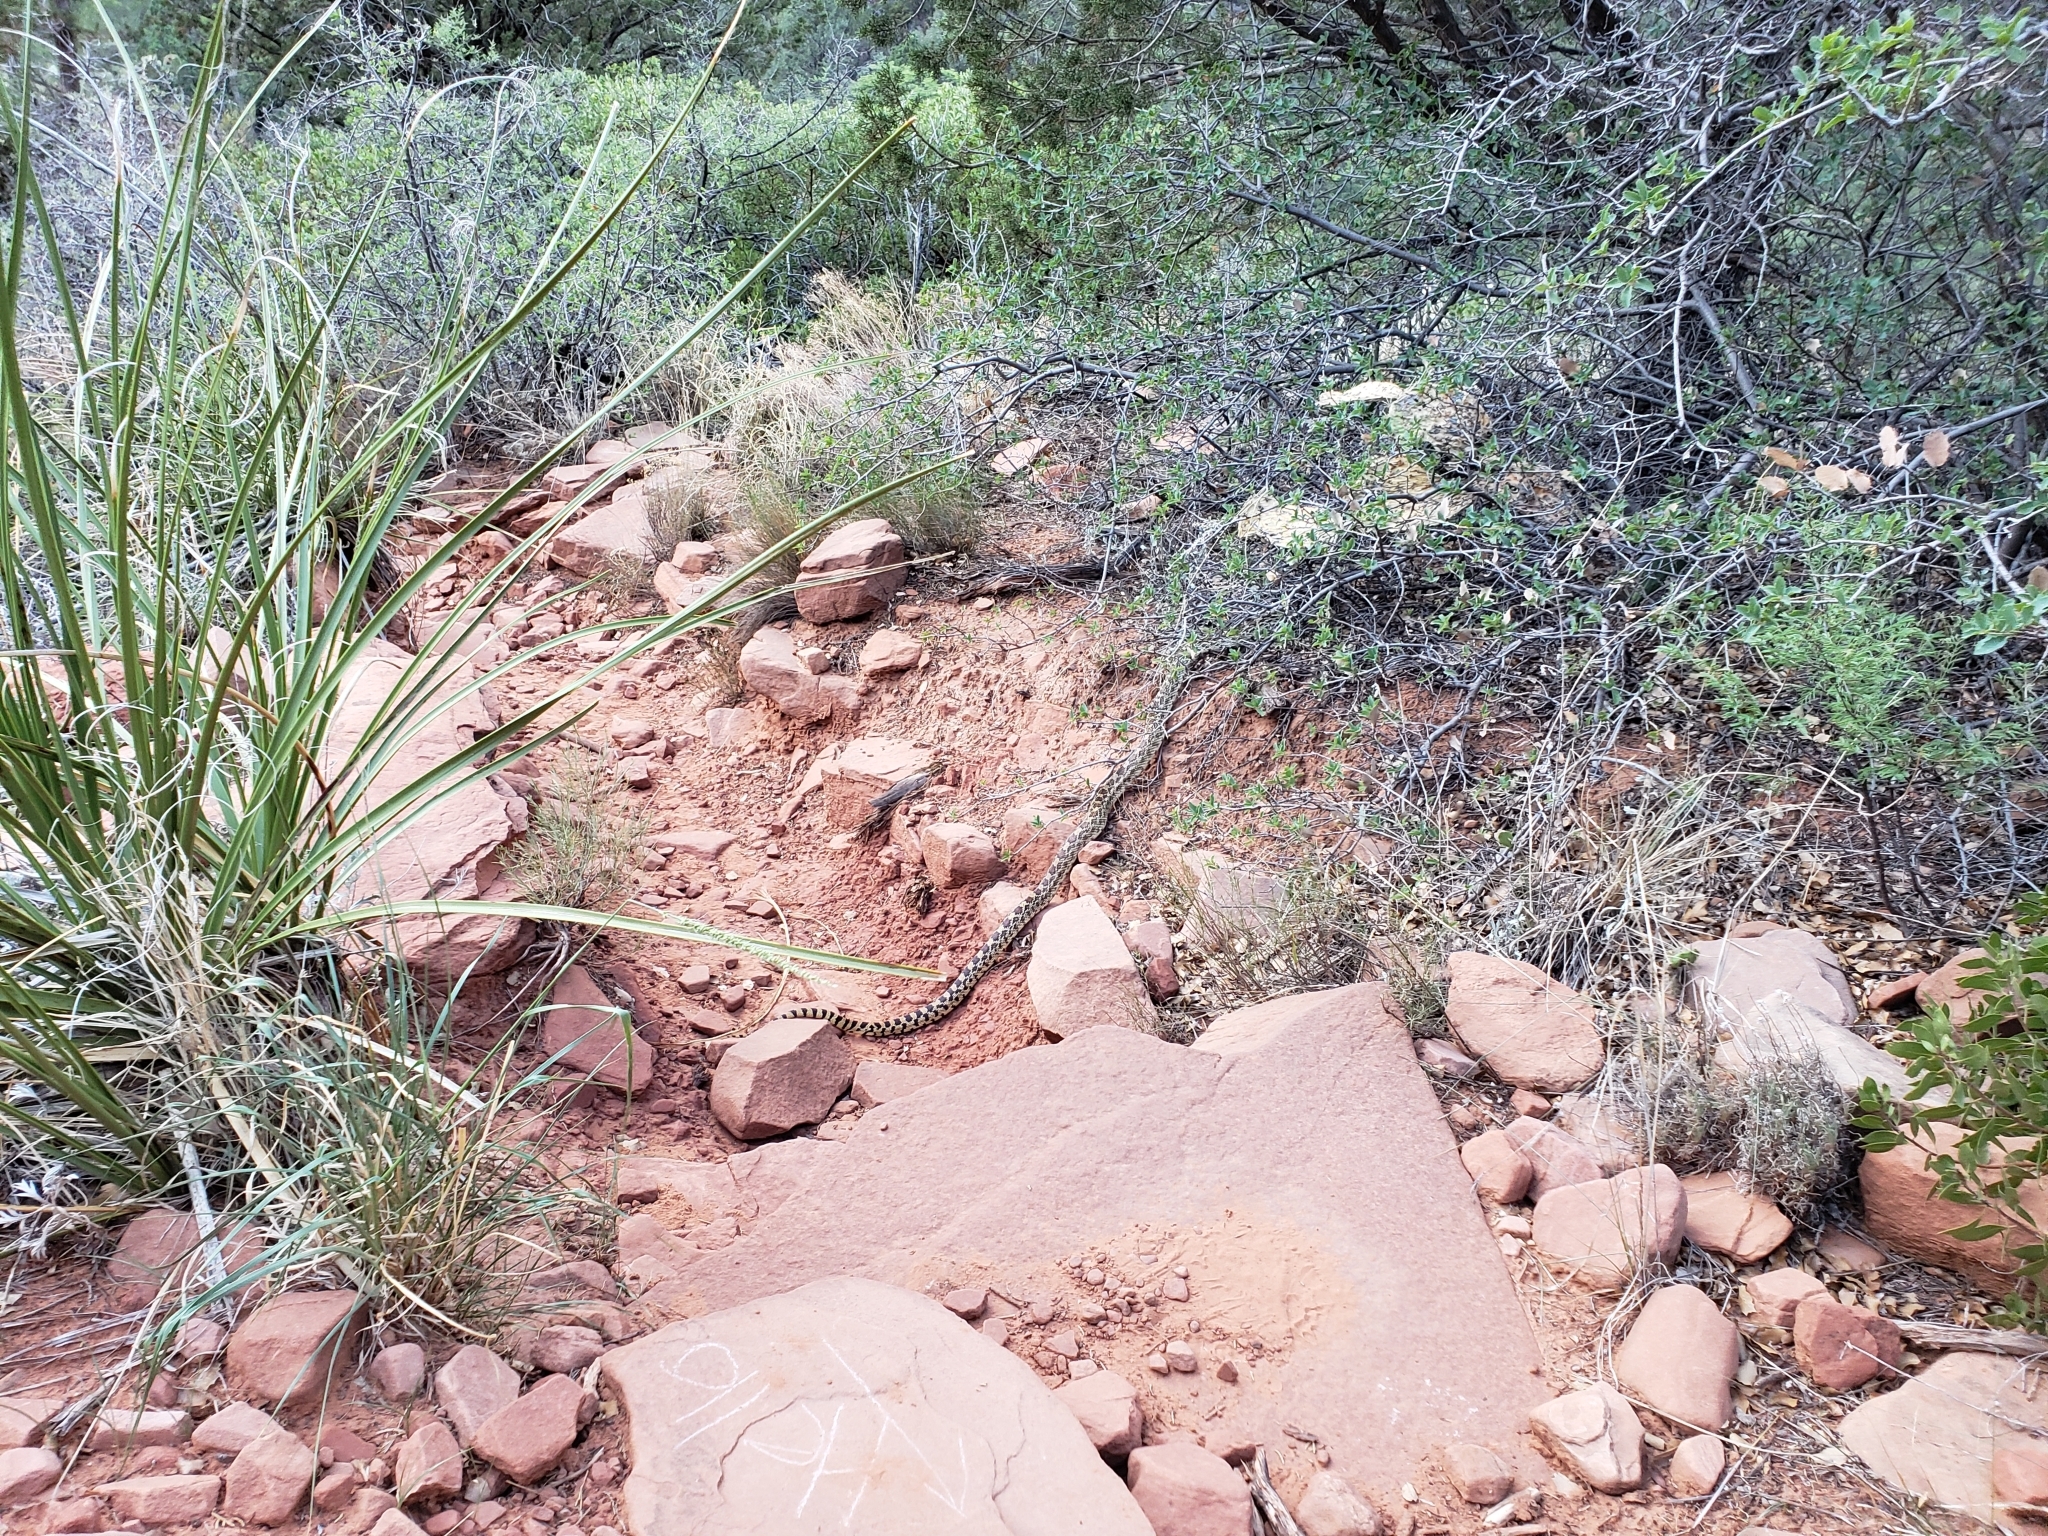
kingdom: Animalia
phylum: Chordata
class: Squamata
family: Colubridae
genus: Pituophis
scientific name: Pituophis catenifer
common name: Gopher snake
